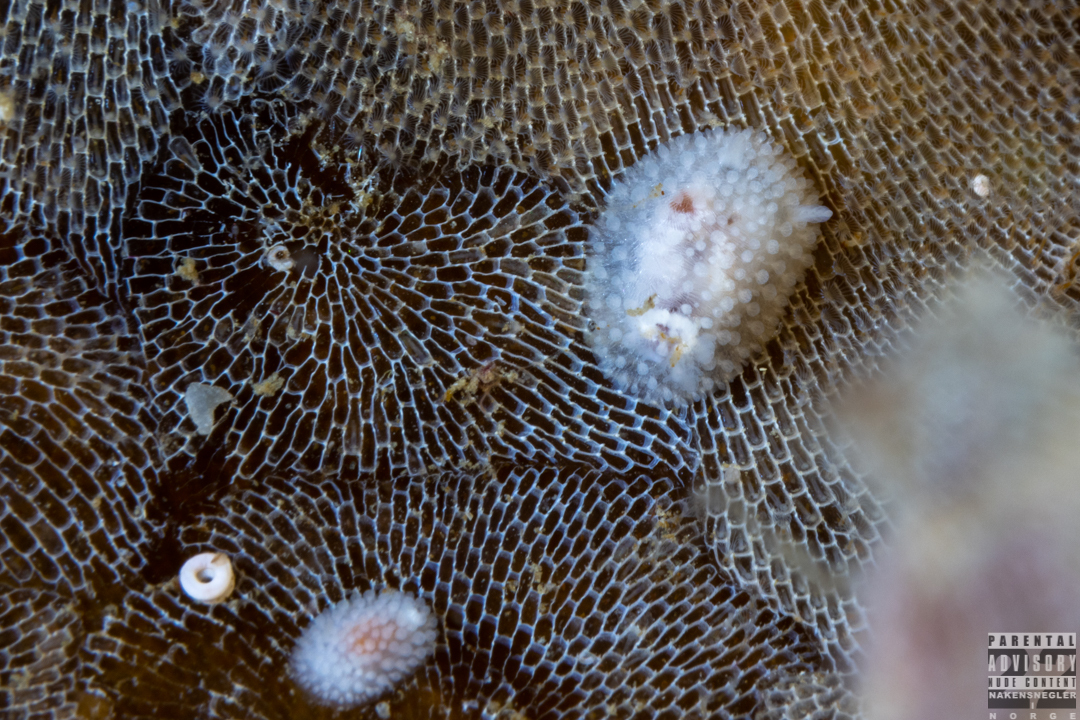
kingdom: Animalia
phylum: Mollusca
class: Gastropoda
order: Nudibranchia
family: Onchidorididae
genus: Onchidoris
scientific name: Onchidoris muricata
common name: Rough doris
